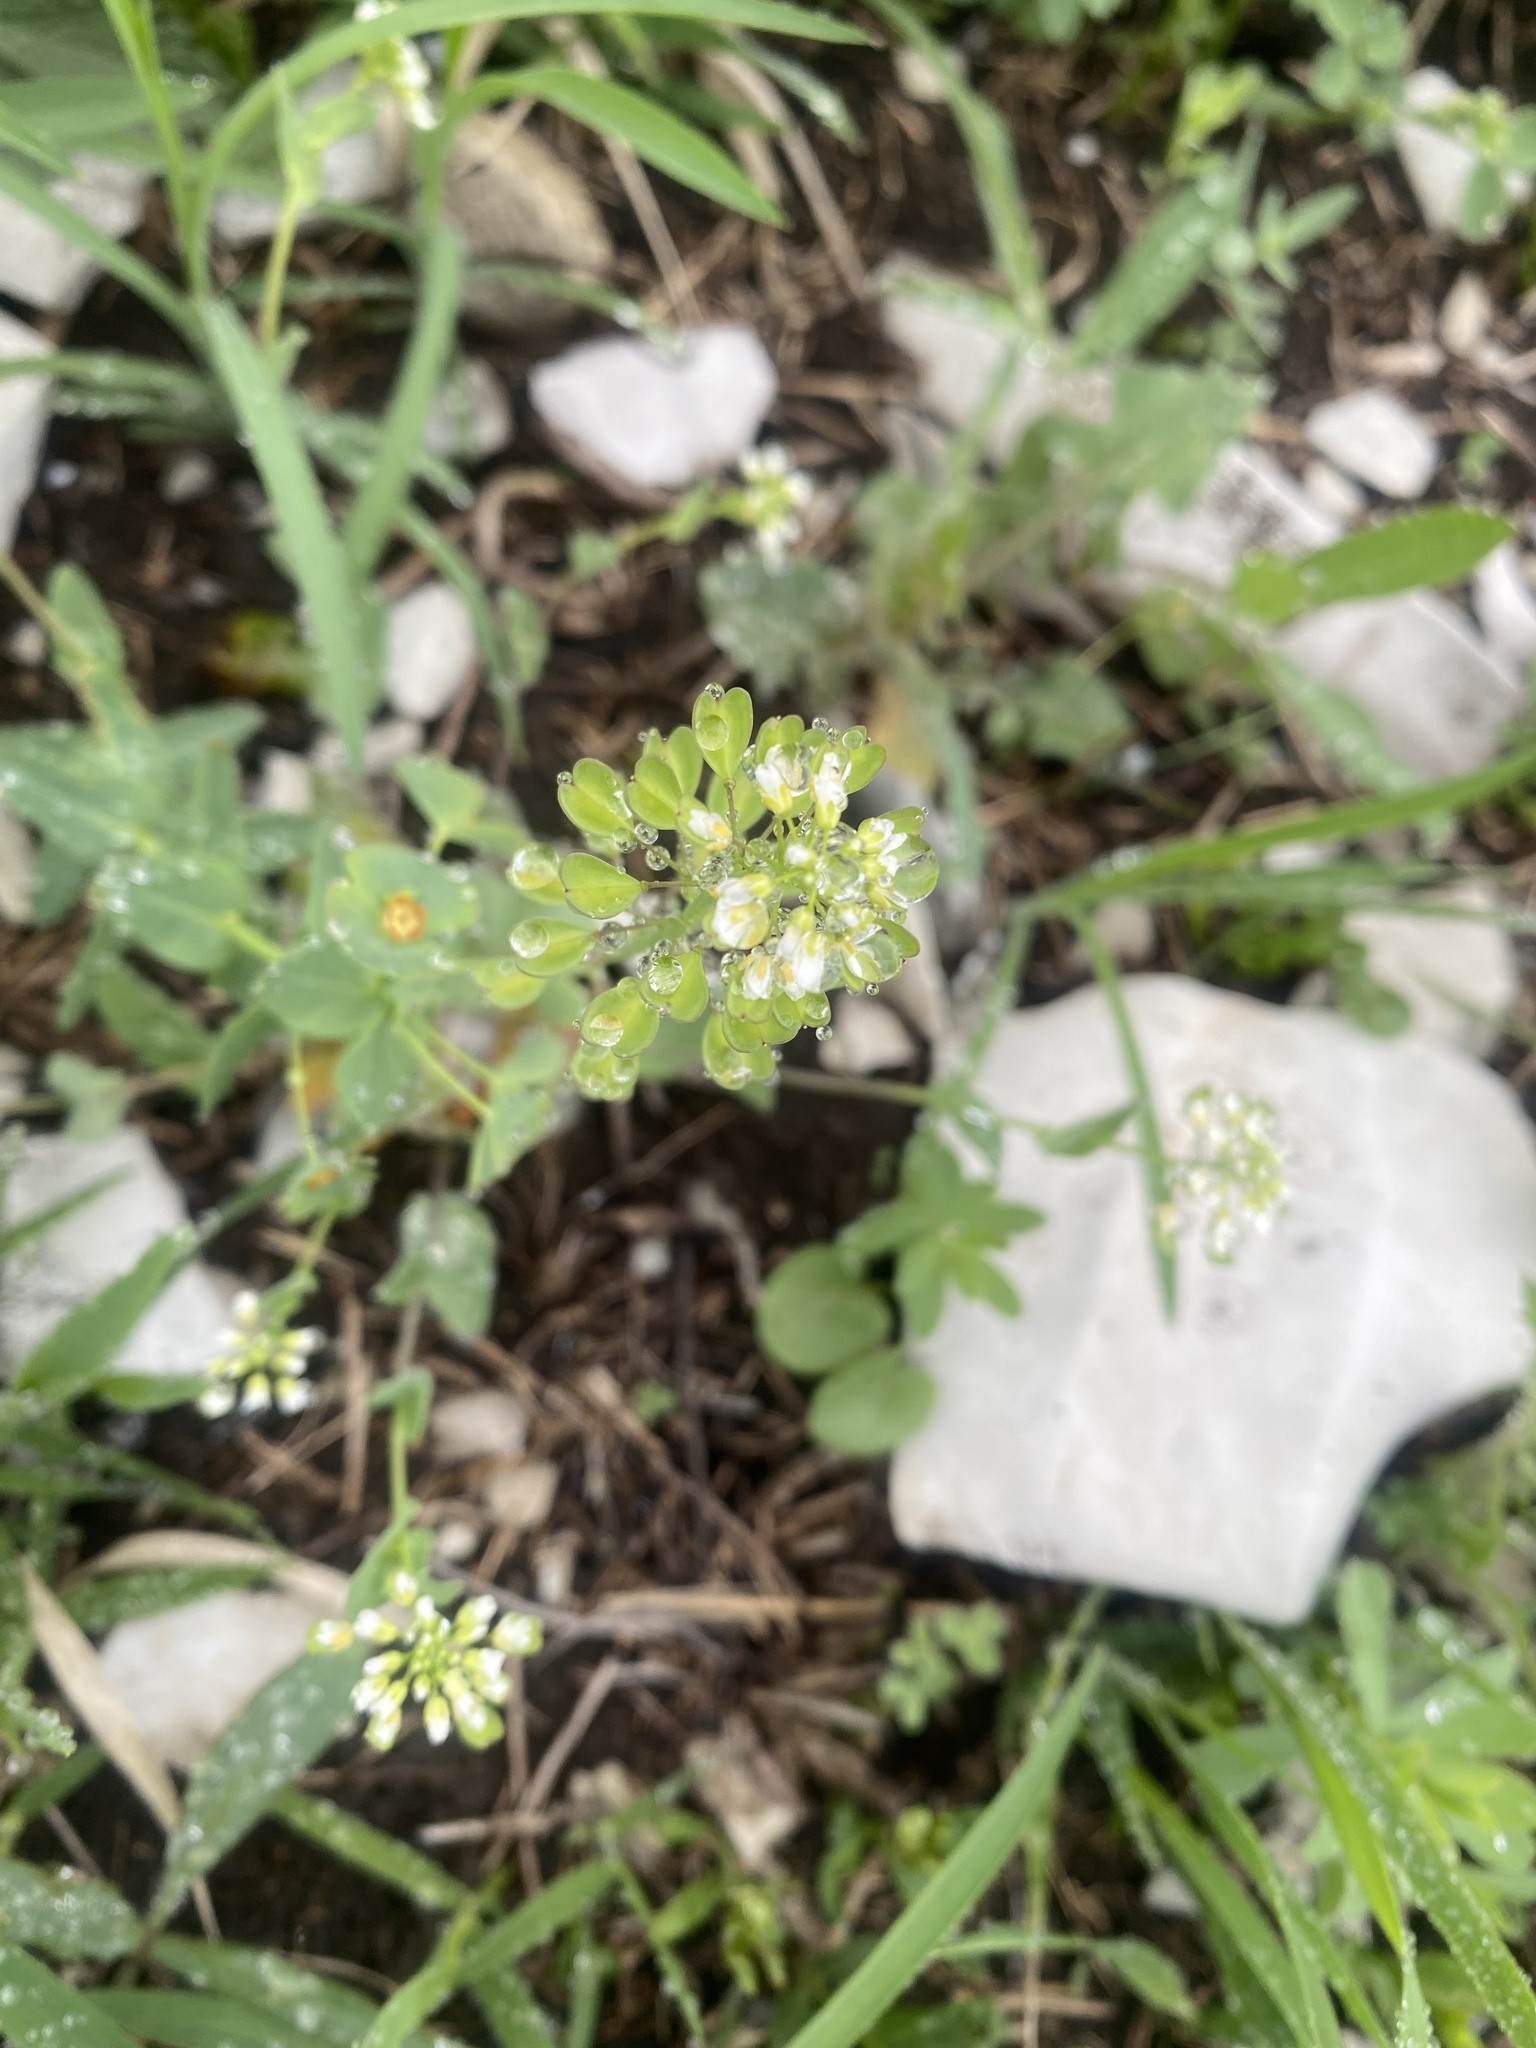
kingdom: Plantae
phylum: Tracheophyta
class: Magnoliopsida
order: Brassicales
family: Brassicaceae
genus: Noccaea
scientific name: Noccaea perfoliata
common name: Perfoliate pennycress
